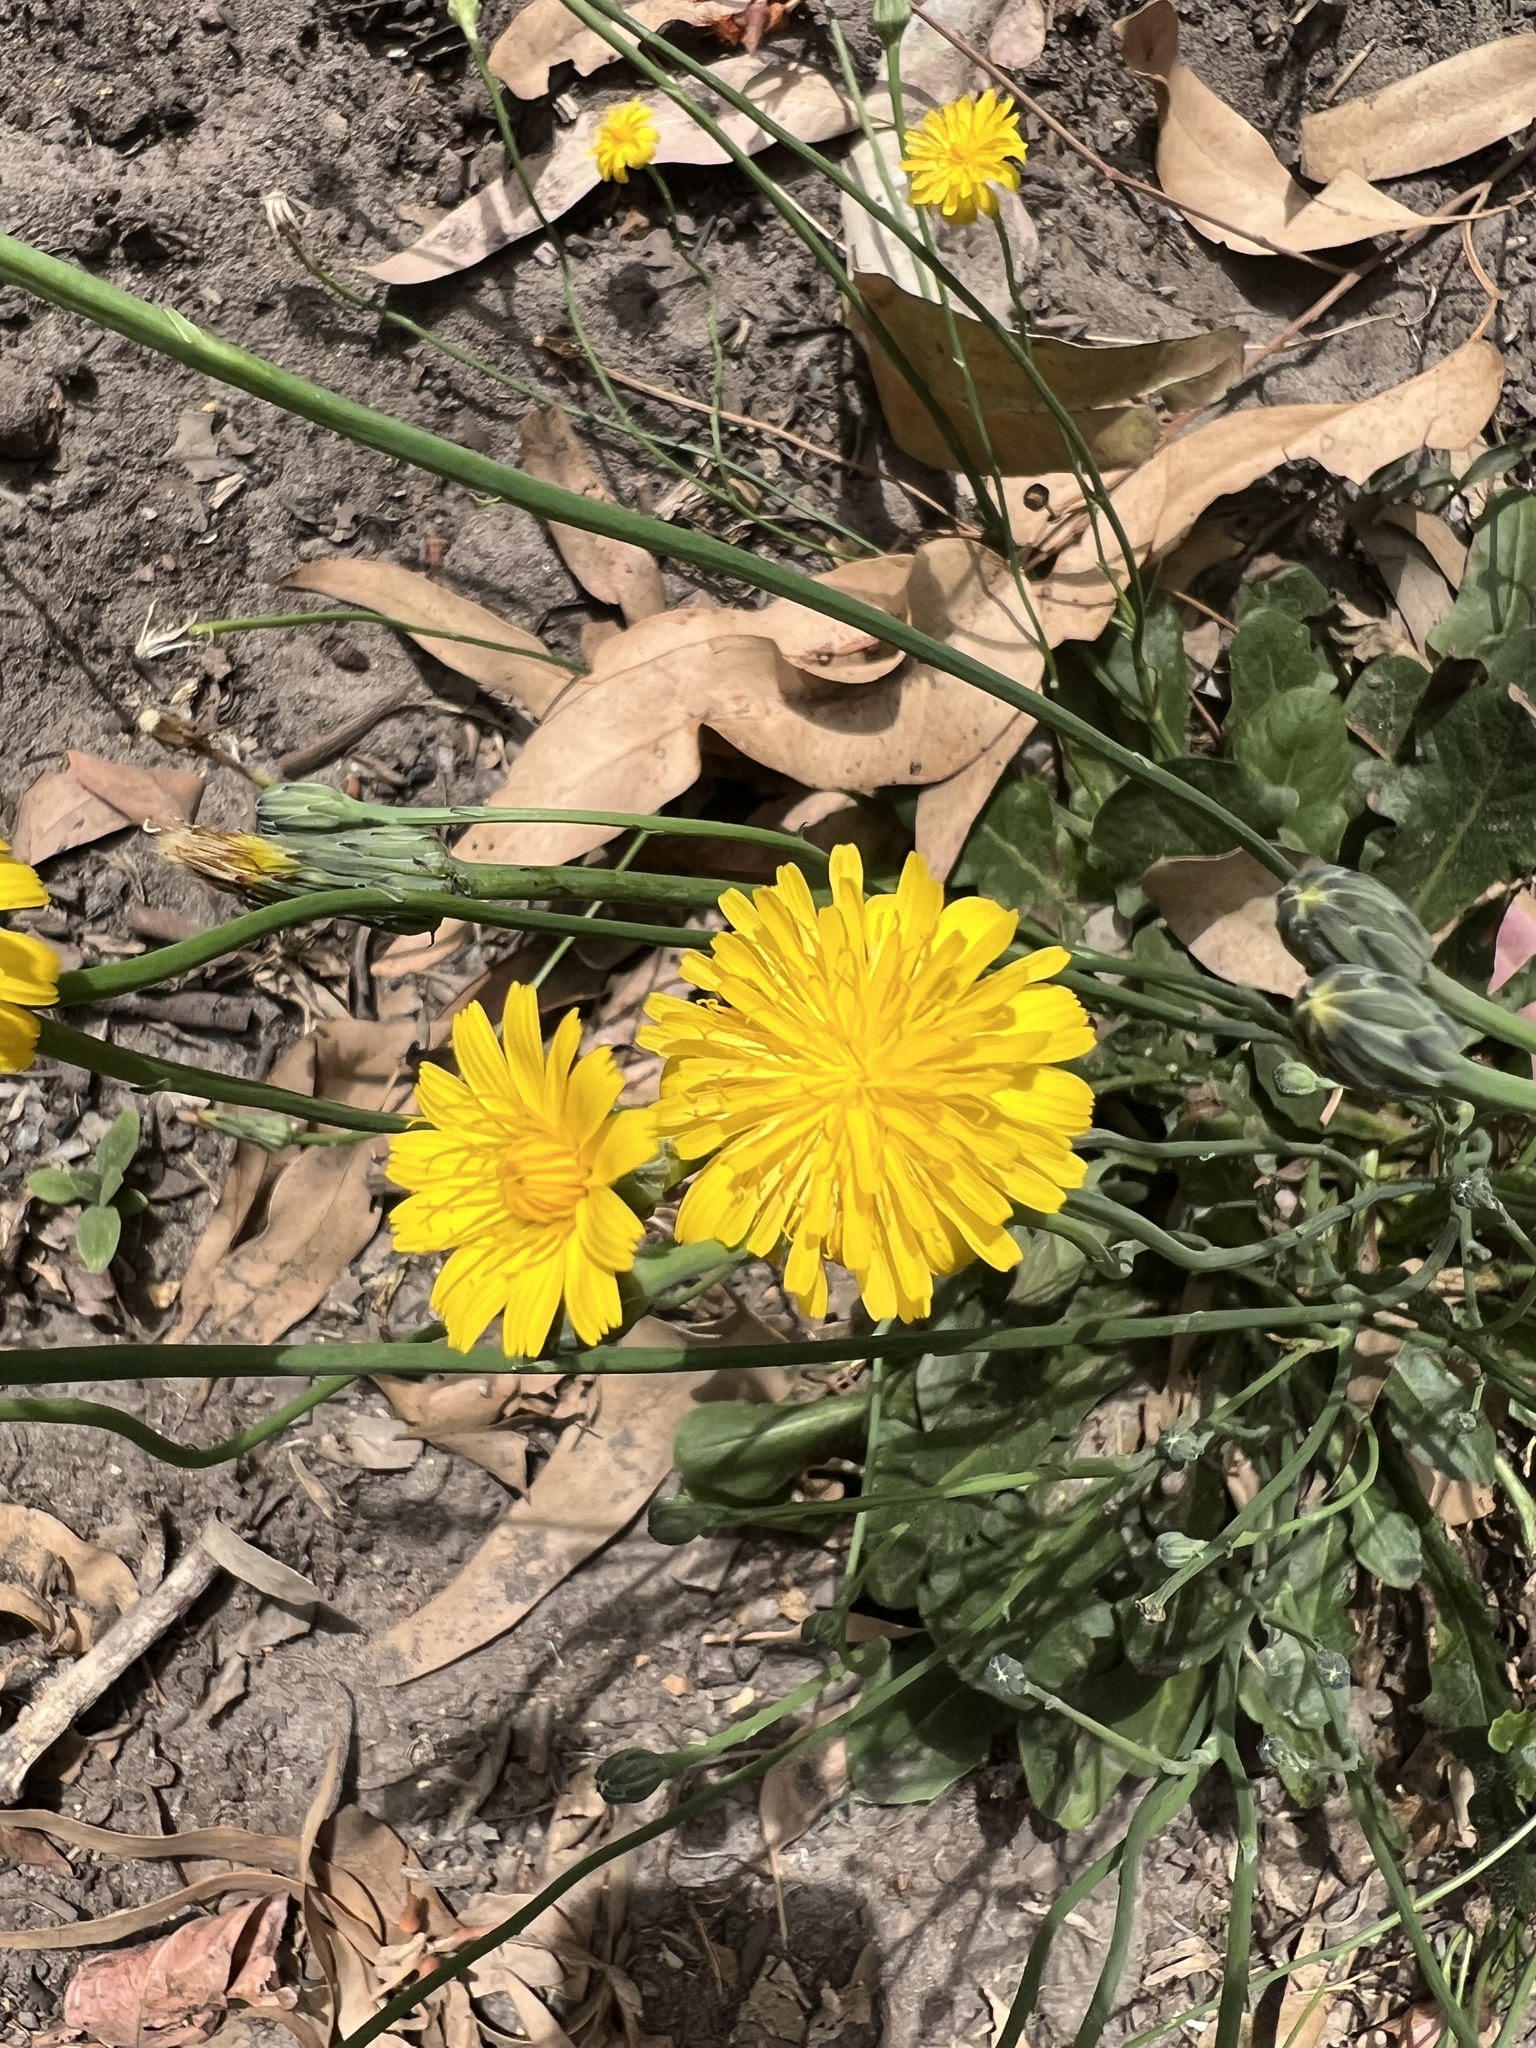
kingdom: Plantae
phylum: Tracheophyta
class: Magnoliopsida
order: Asterales
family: Asteraceae
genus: Hypochaeris
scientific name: Hypochaeris radicata
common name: Flatweed
